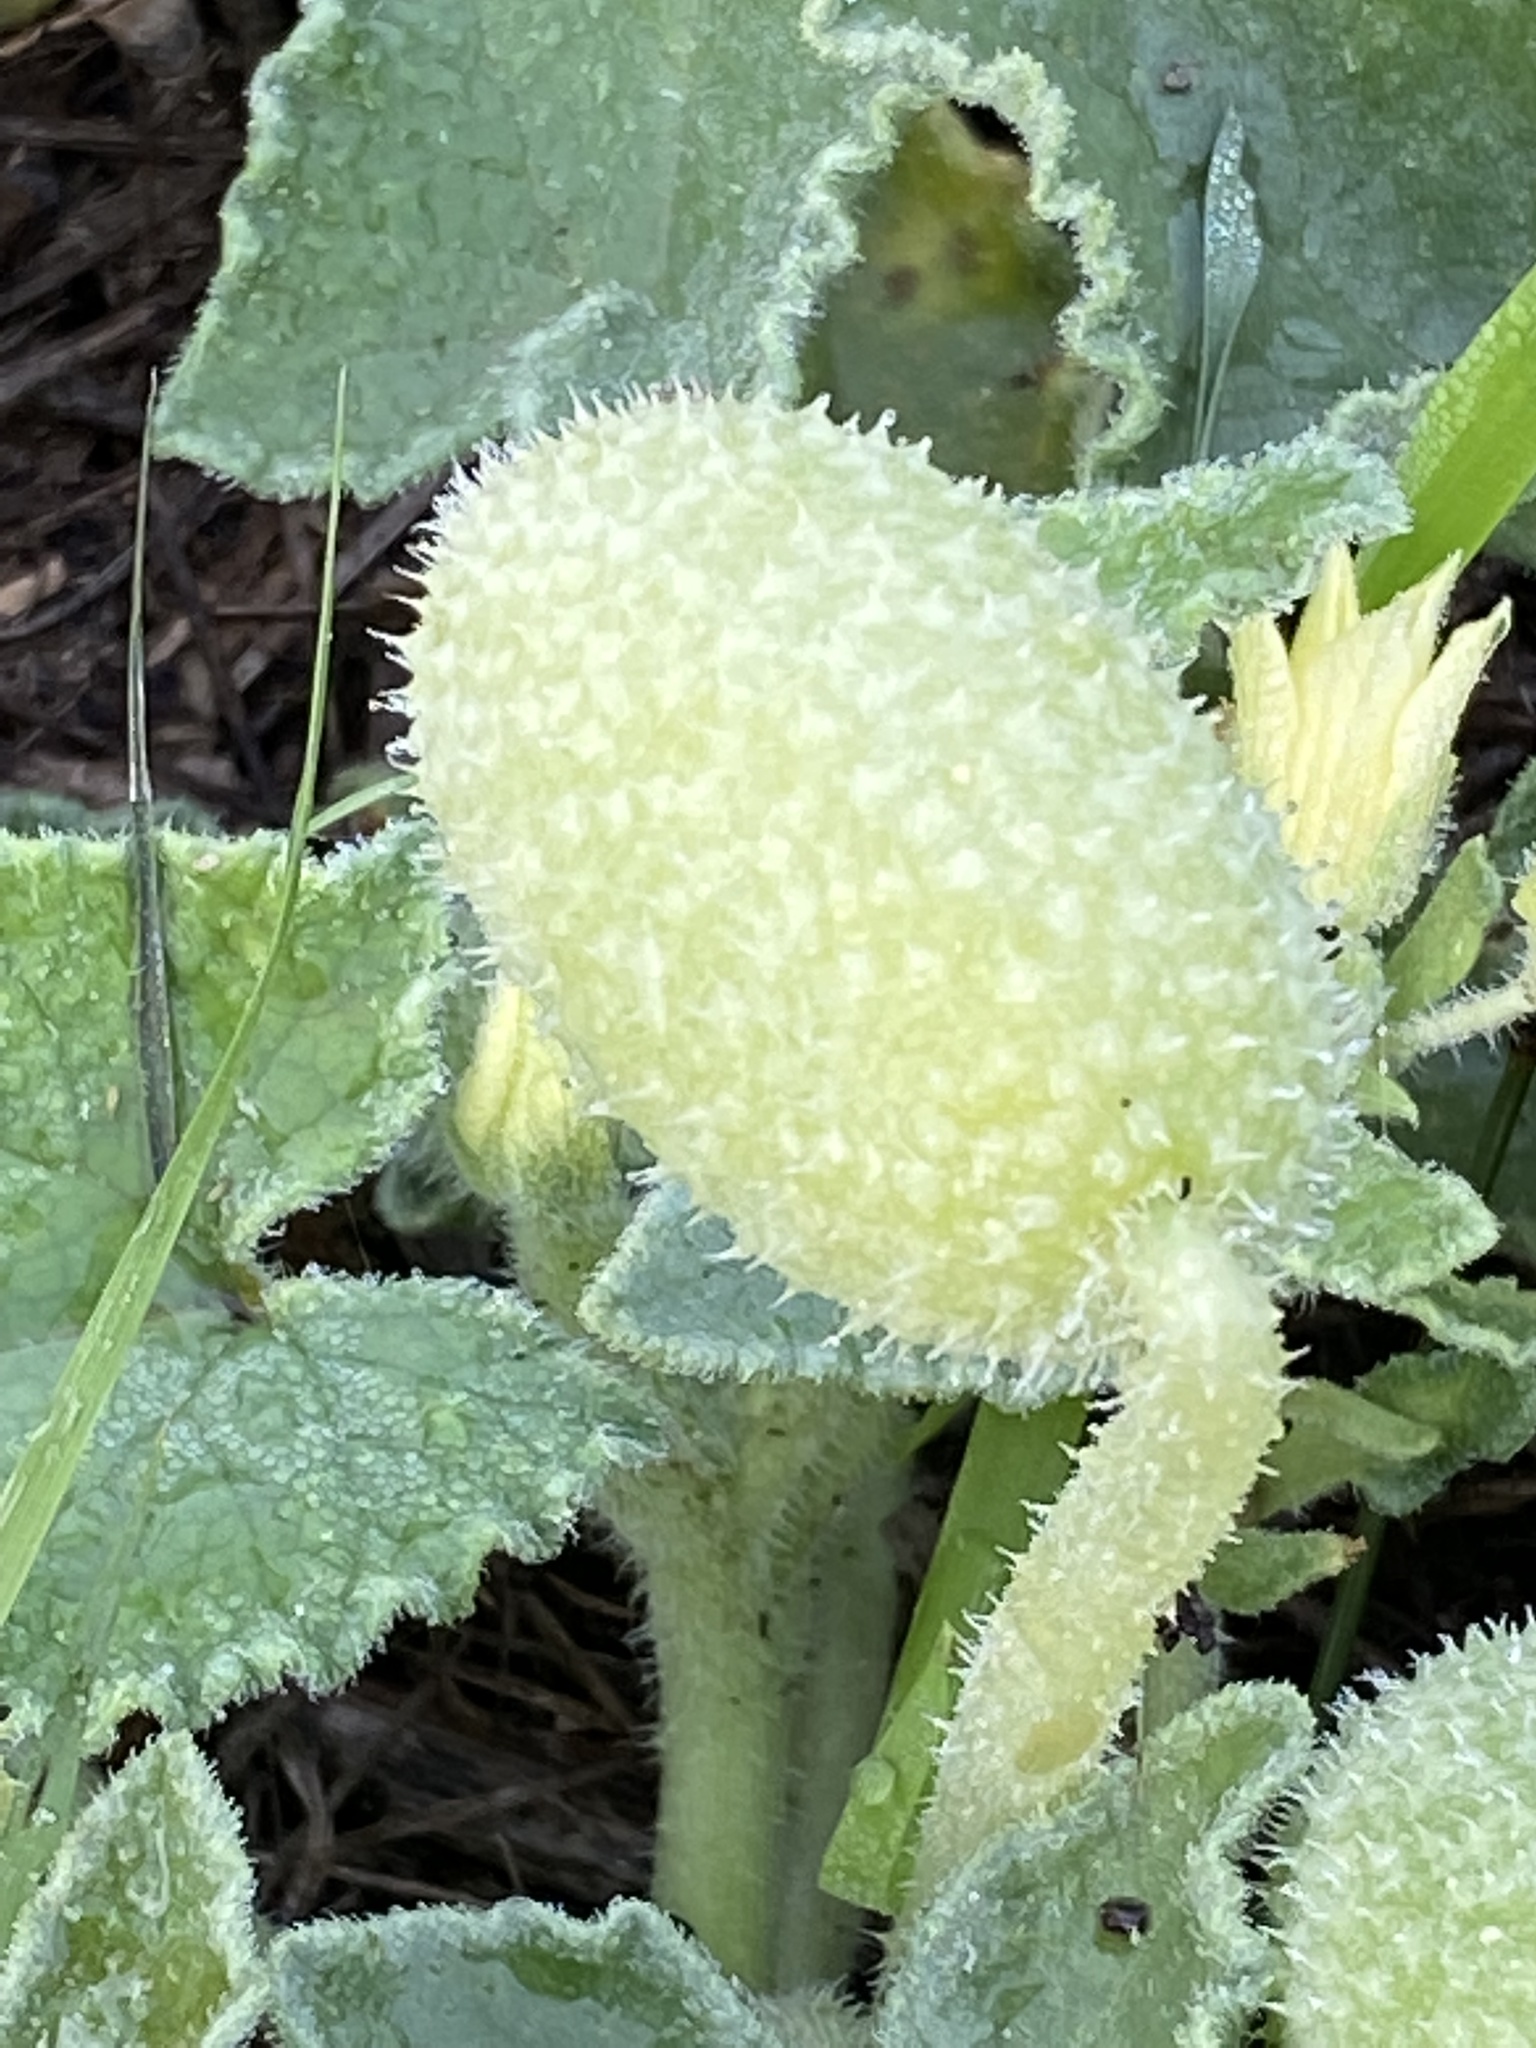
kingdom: Plantae
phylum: Tracheophyta
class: Magnoliopsida
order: Cucurbitales
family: Cucurbitaceae
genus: Ecballium
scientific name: Ecballium elaterium
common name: Squirting cucumber
